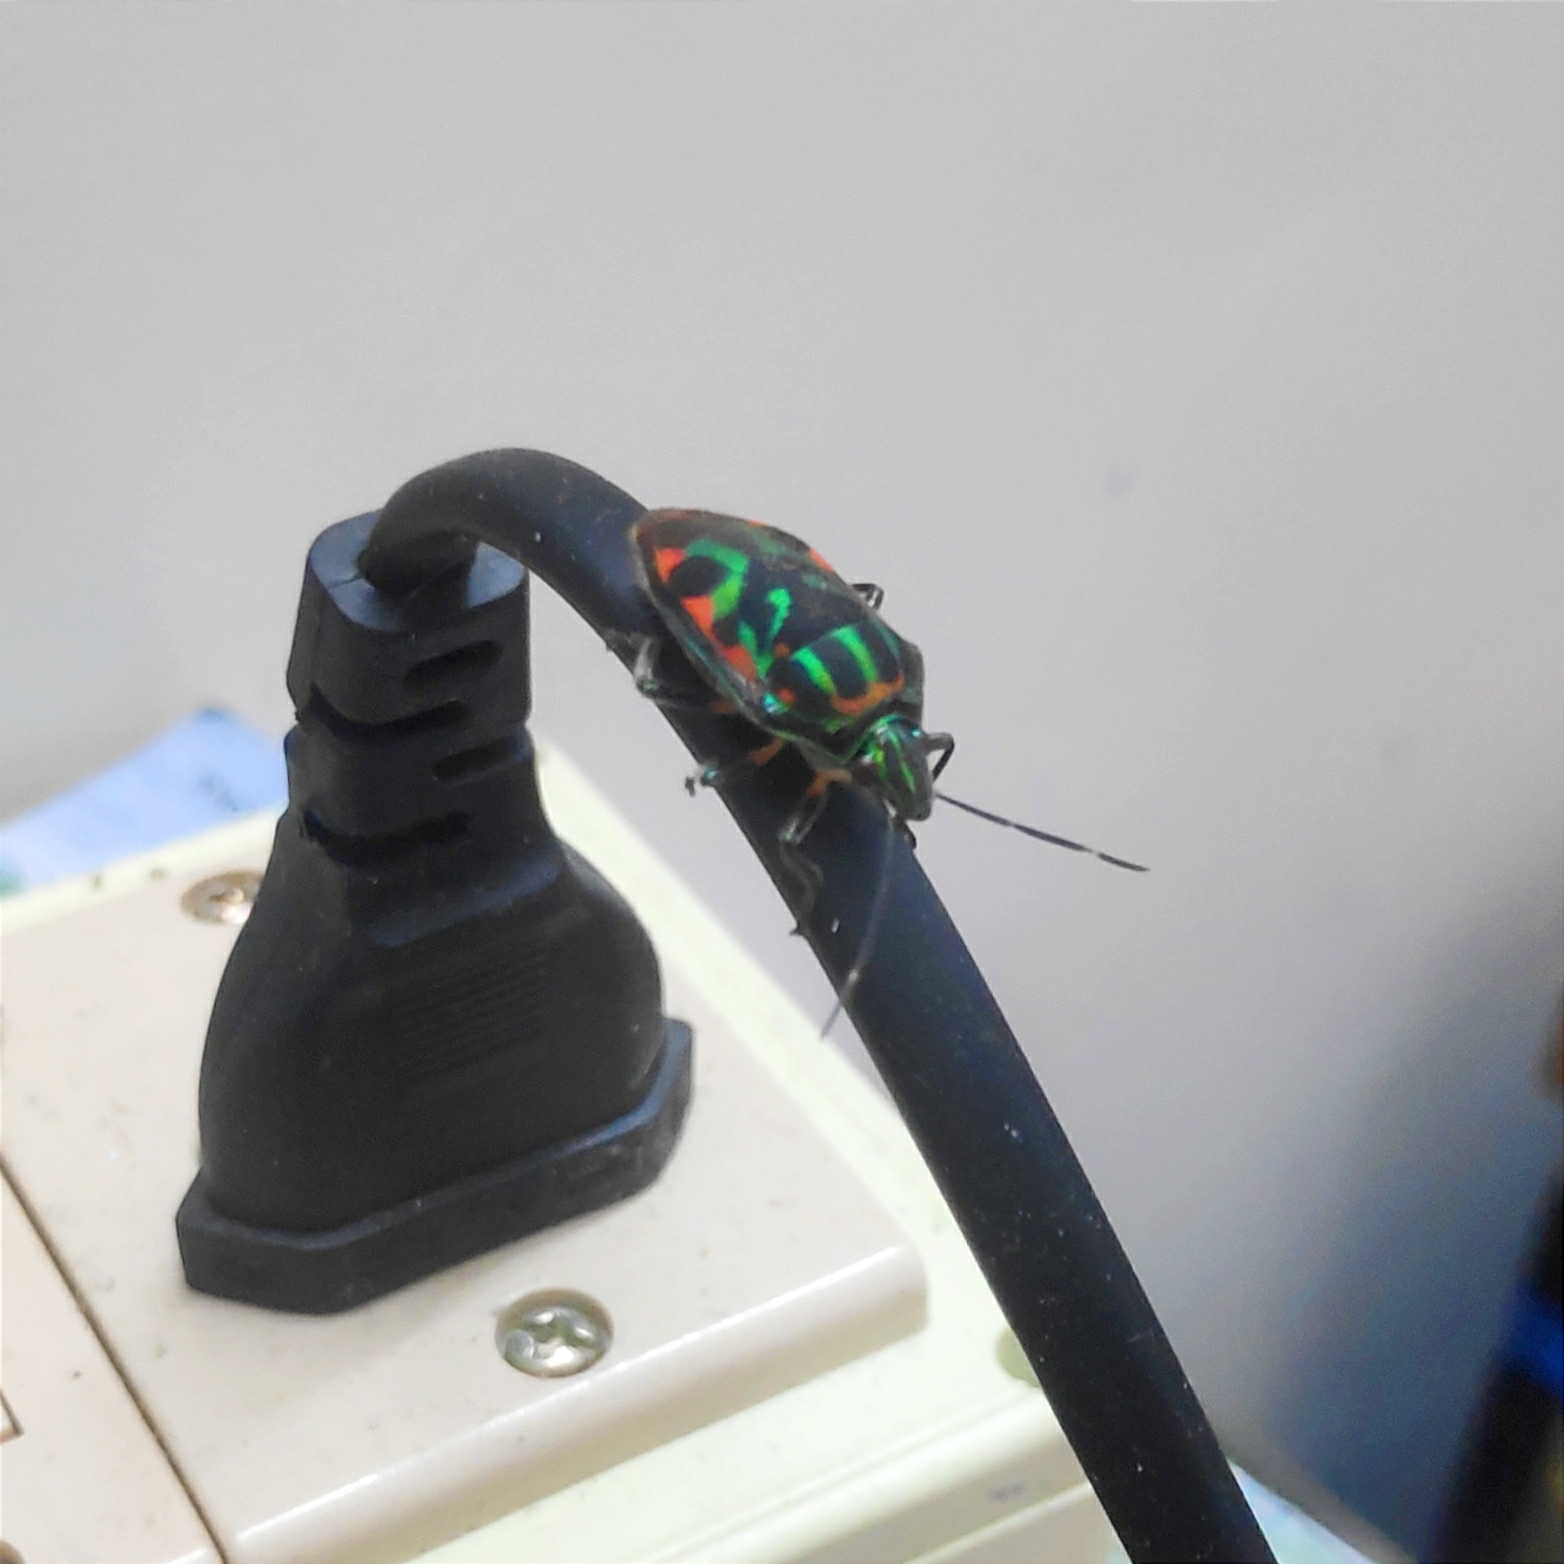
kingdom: Animalia
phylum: Arthropoda
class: Insecta
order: Hemiptera
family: Scutelleridae
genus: Tetrarthria
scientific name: Tetrarthria variegata
